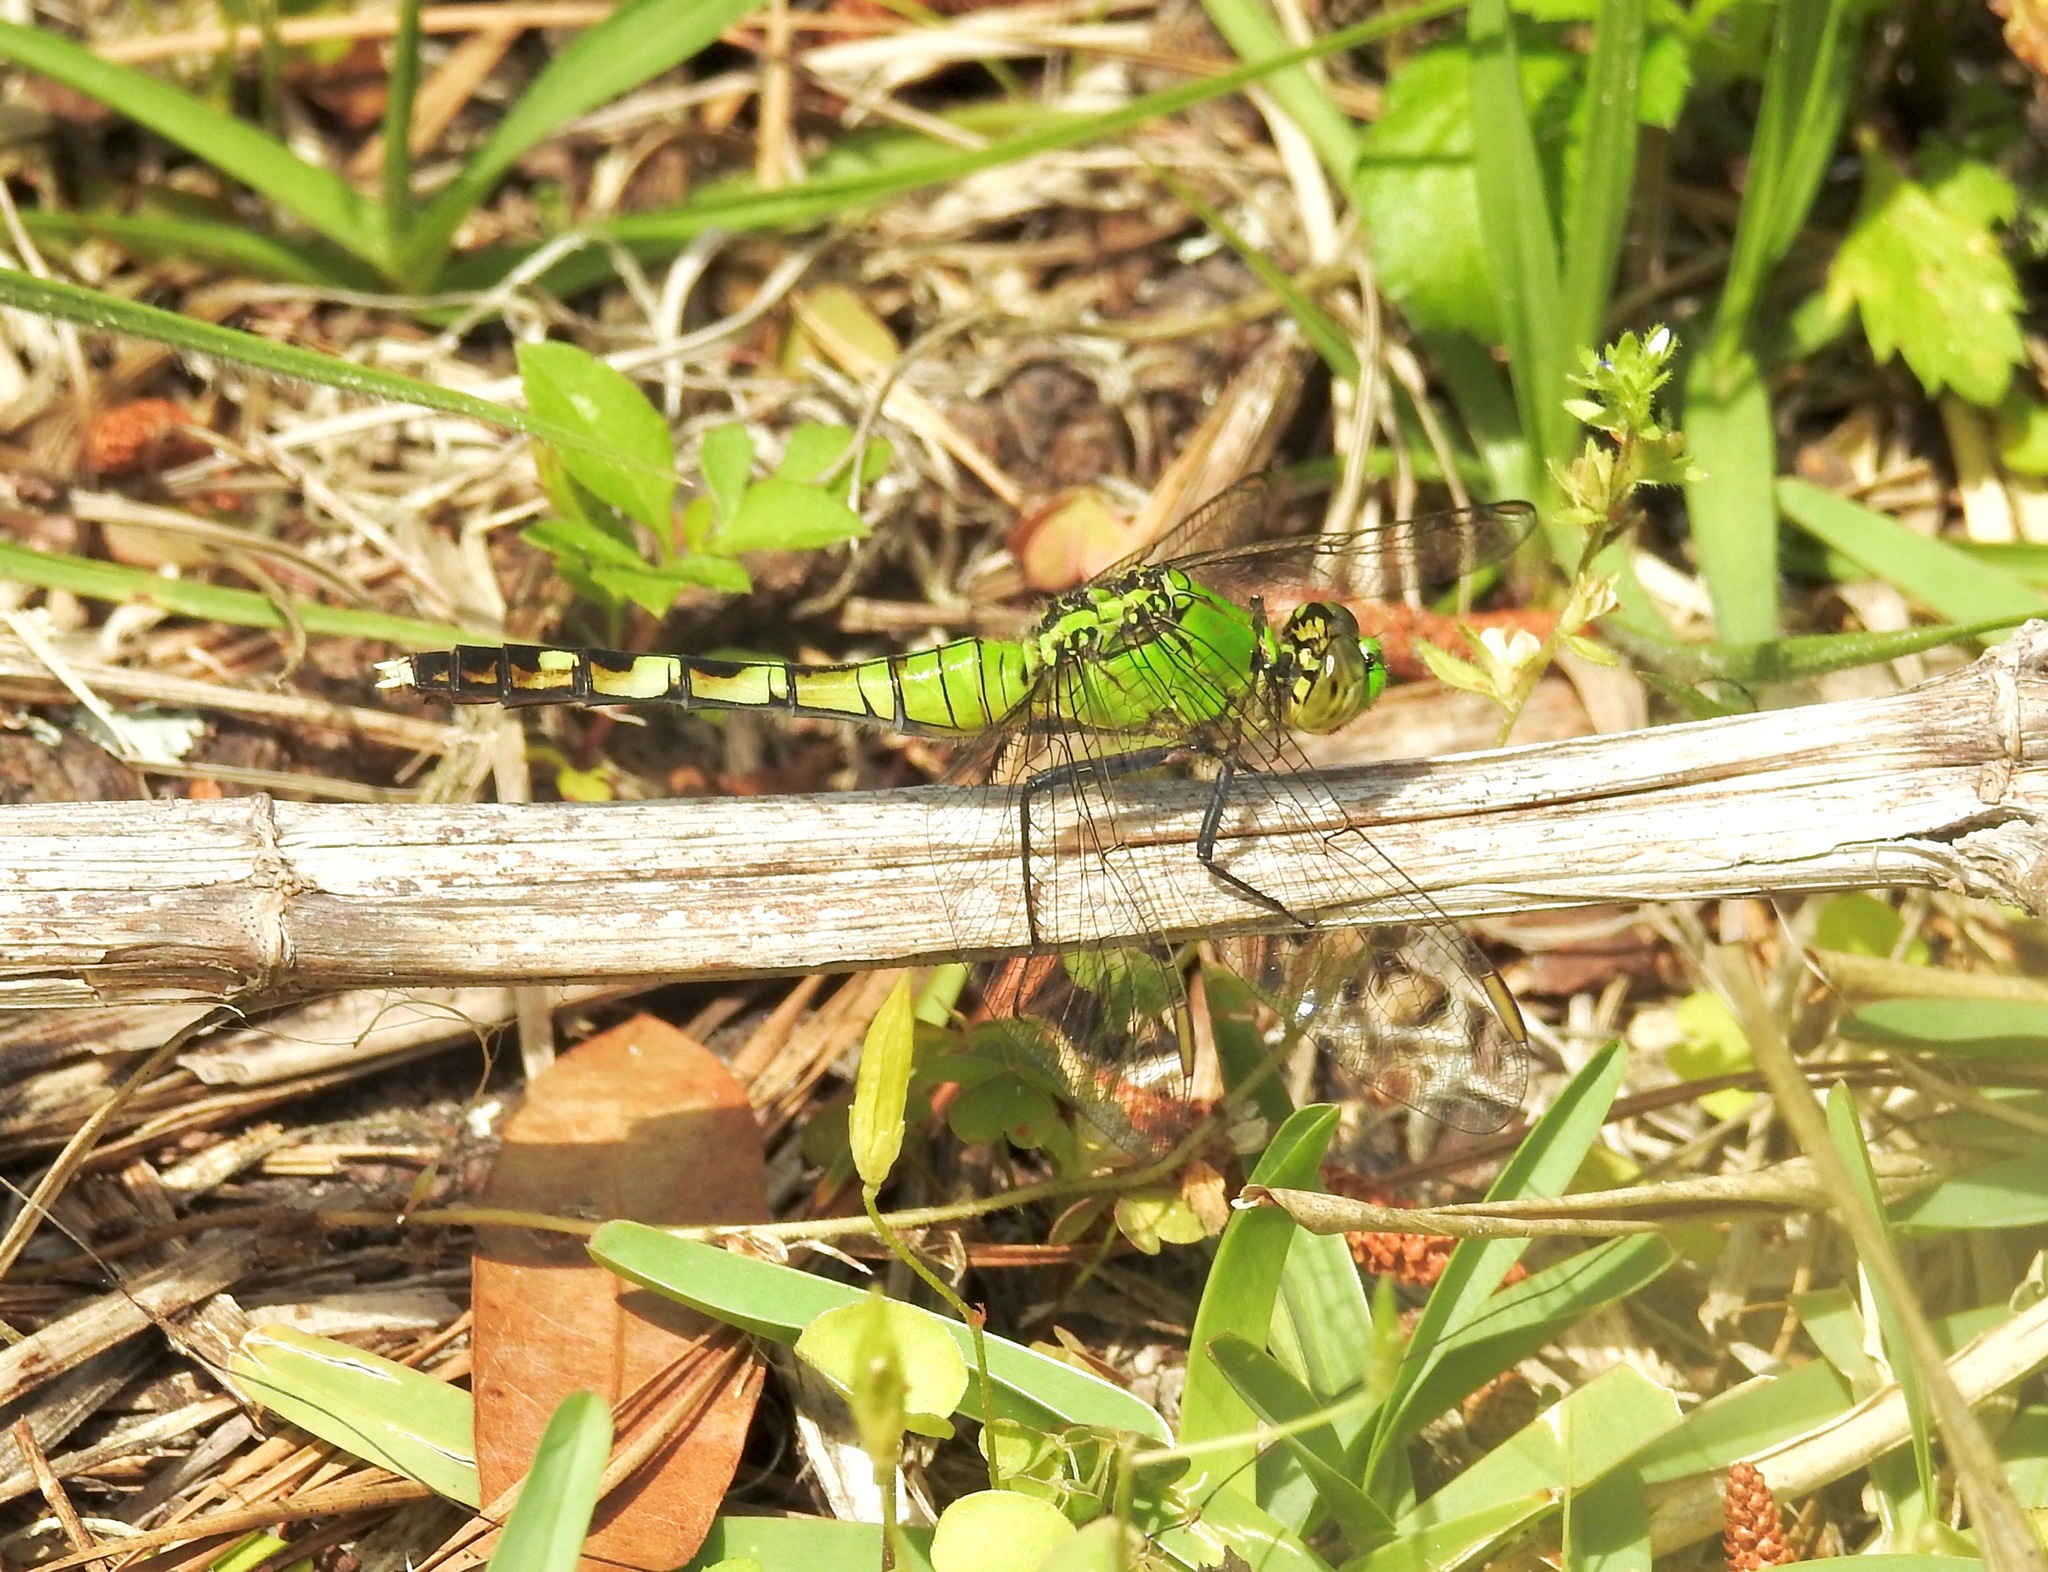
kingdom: Animalia
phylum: Arthropoda
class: Insecta
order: Odonata
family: Libellulidae
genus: Erythemis
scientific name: Erythemis simplicicollis
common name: Eastern pondhawk
